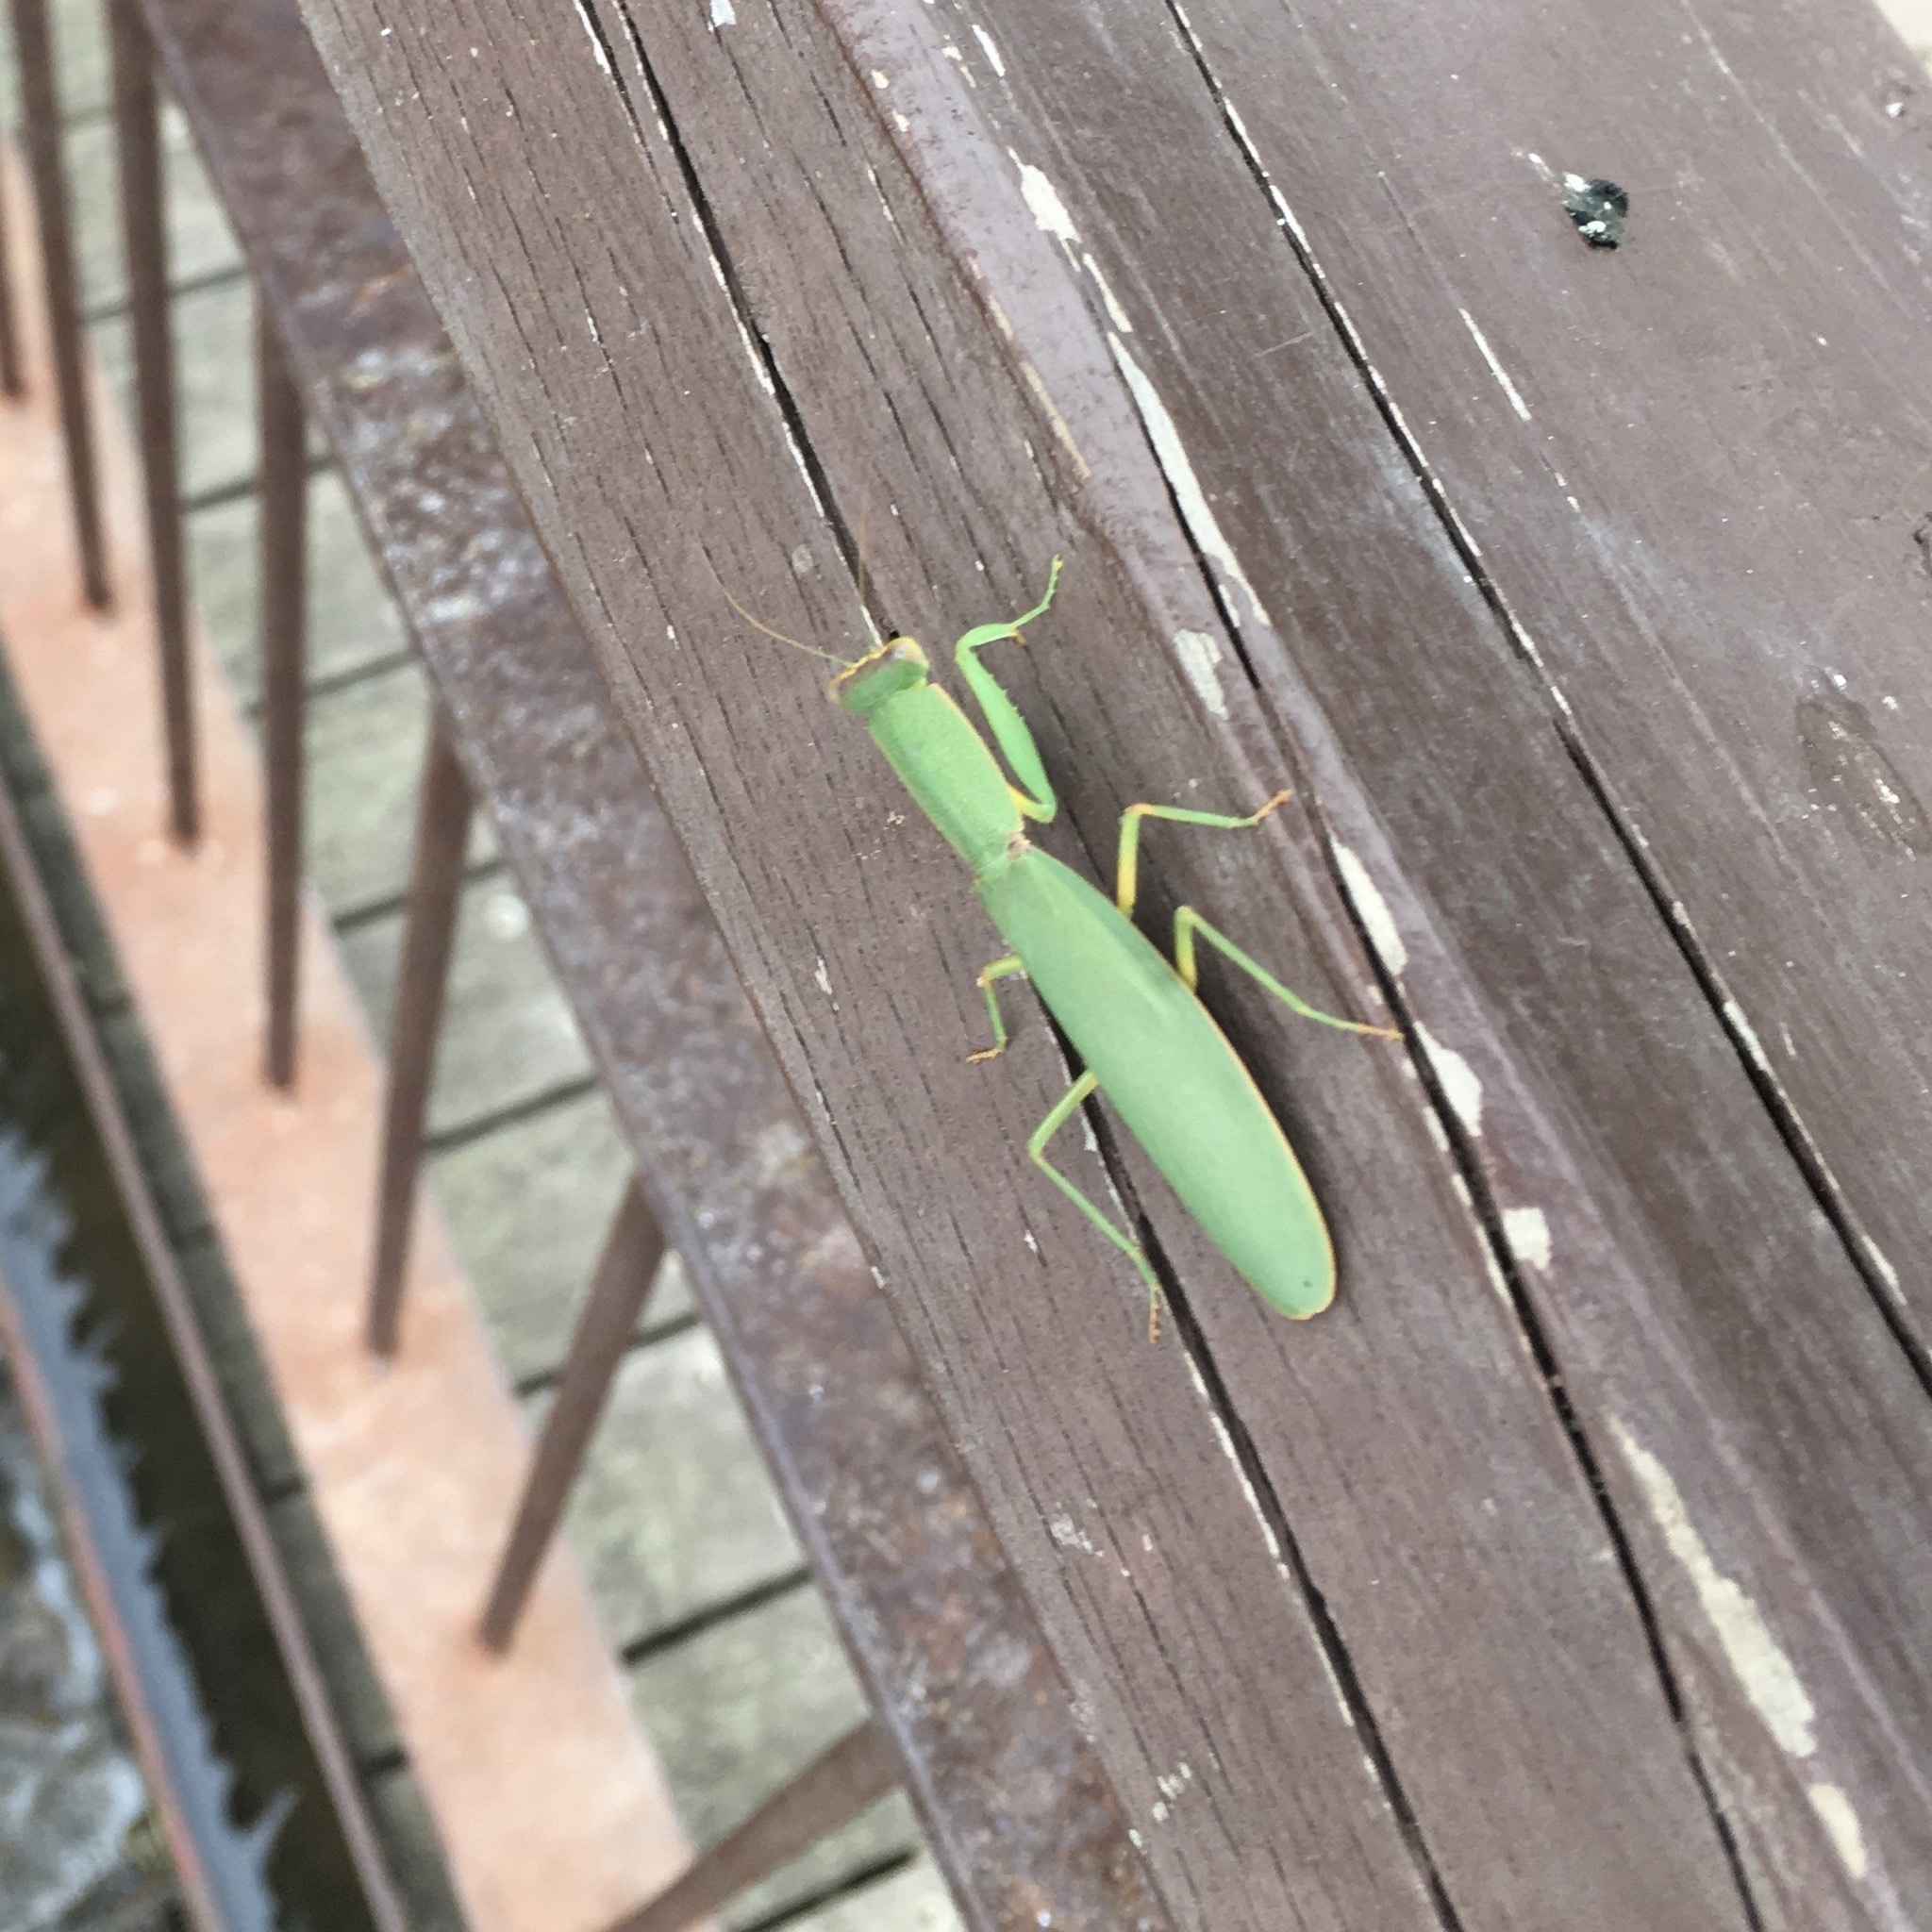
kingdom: Animalia
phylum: Arthropoda
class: Insecta
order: Mantodea
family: Mantidae
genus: Orthodera
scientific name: Orthodera ministralis
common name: Mantis
